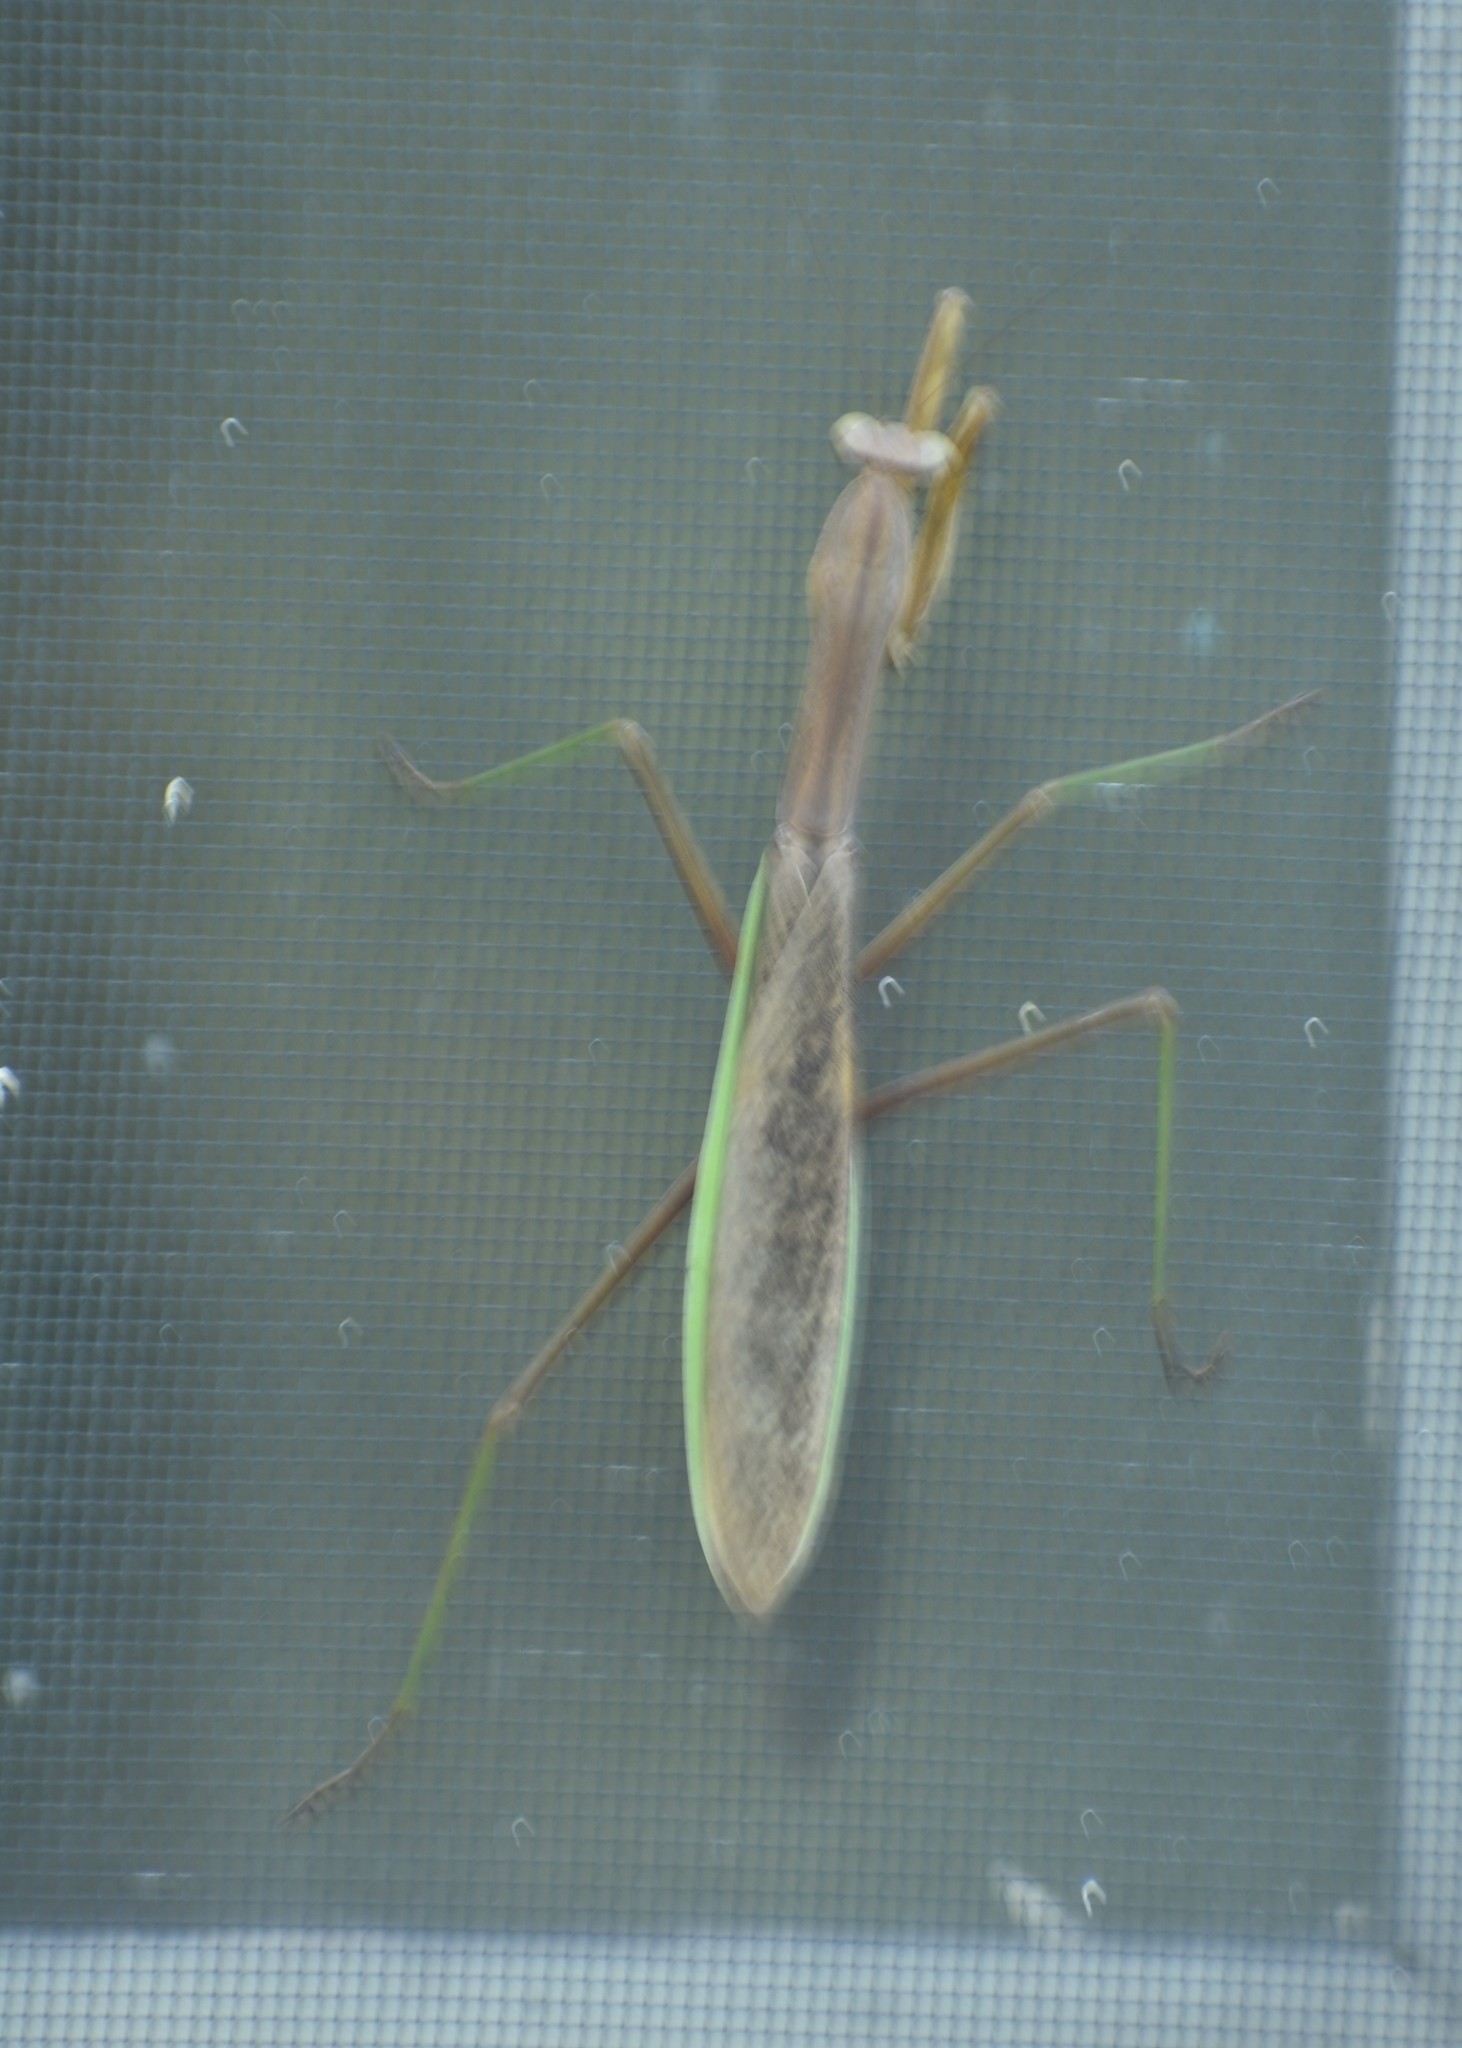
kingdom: Animalia
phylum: Arthropoda
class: Insecta
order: Mantodea
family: Mantidae
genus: Tenodera
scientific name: Tenodera sinensis
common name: Chinese mantis
